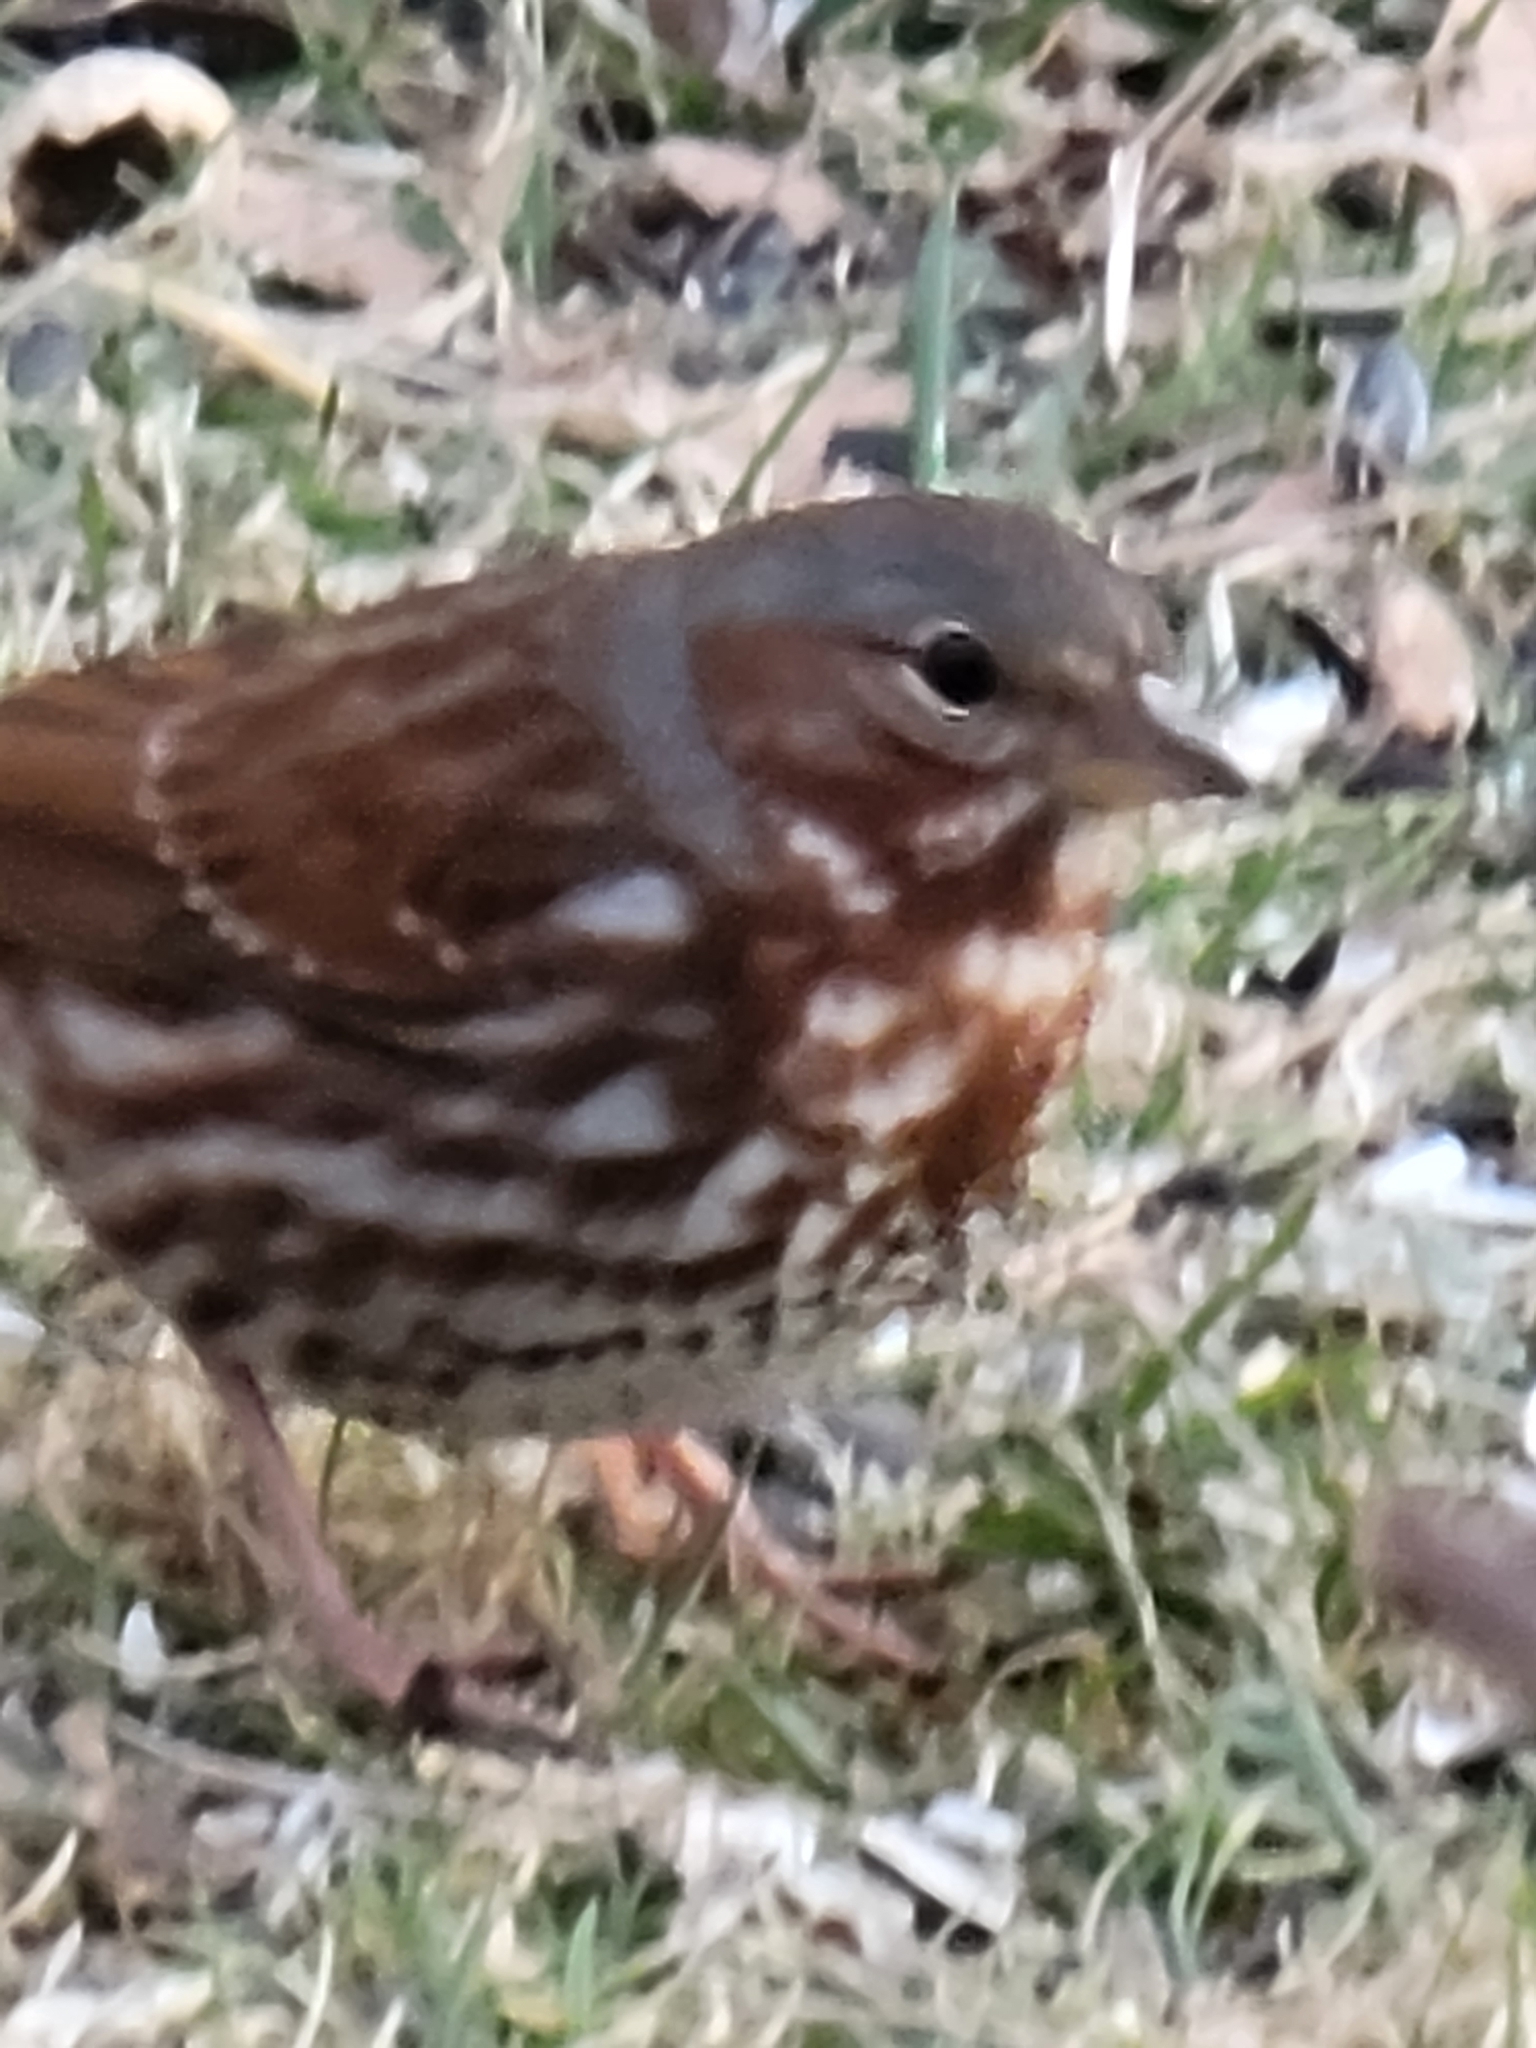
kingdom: Animalia
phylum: Chordata
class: Aves
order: Passeriformes
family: Passerellidae
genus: Passerella
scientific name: Passerella iliaca
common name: Fox sparrow
